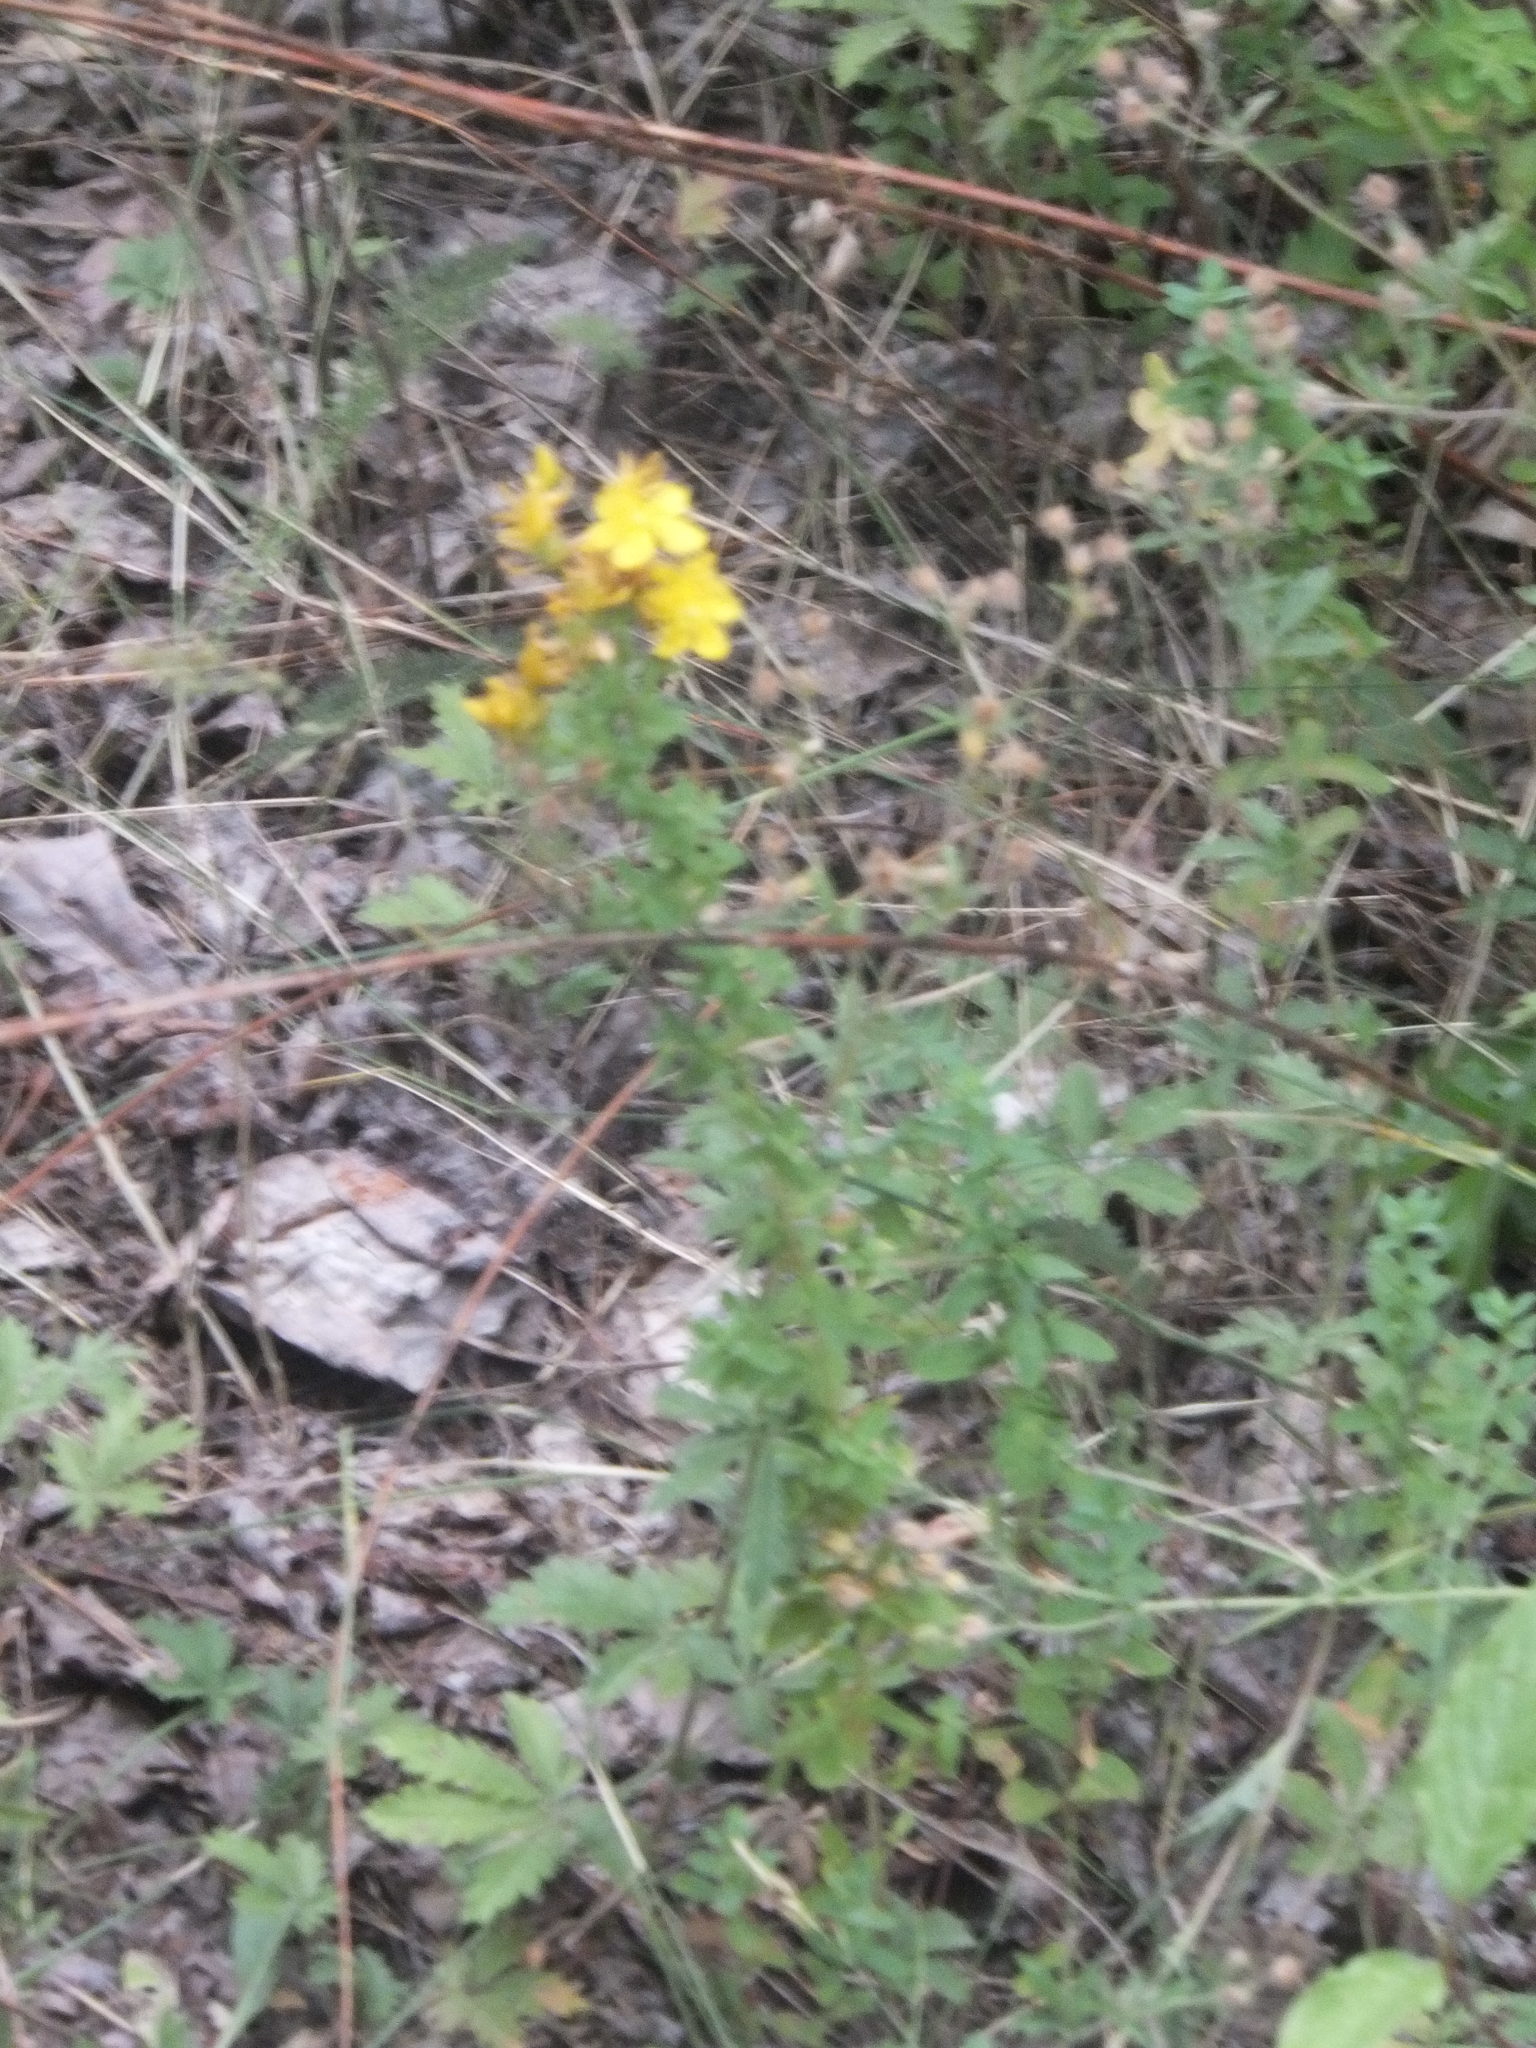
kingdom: Plantae
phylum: Tracheophyta
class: Magnoliopsida
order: Malpighiales
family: Hypericaceae
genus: Hypericum
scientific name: Hypericum perforatum
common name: Common st. johnswort
